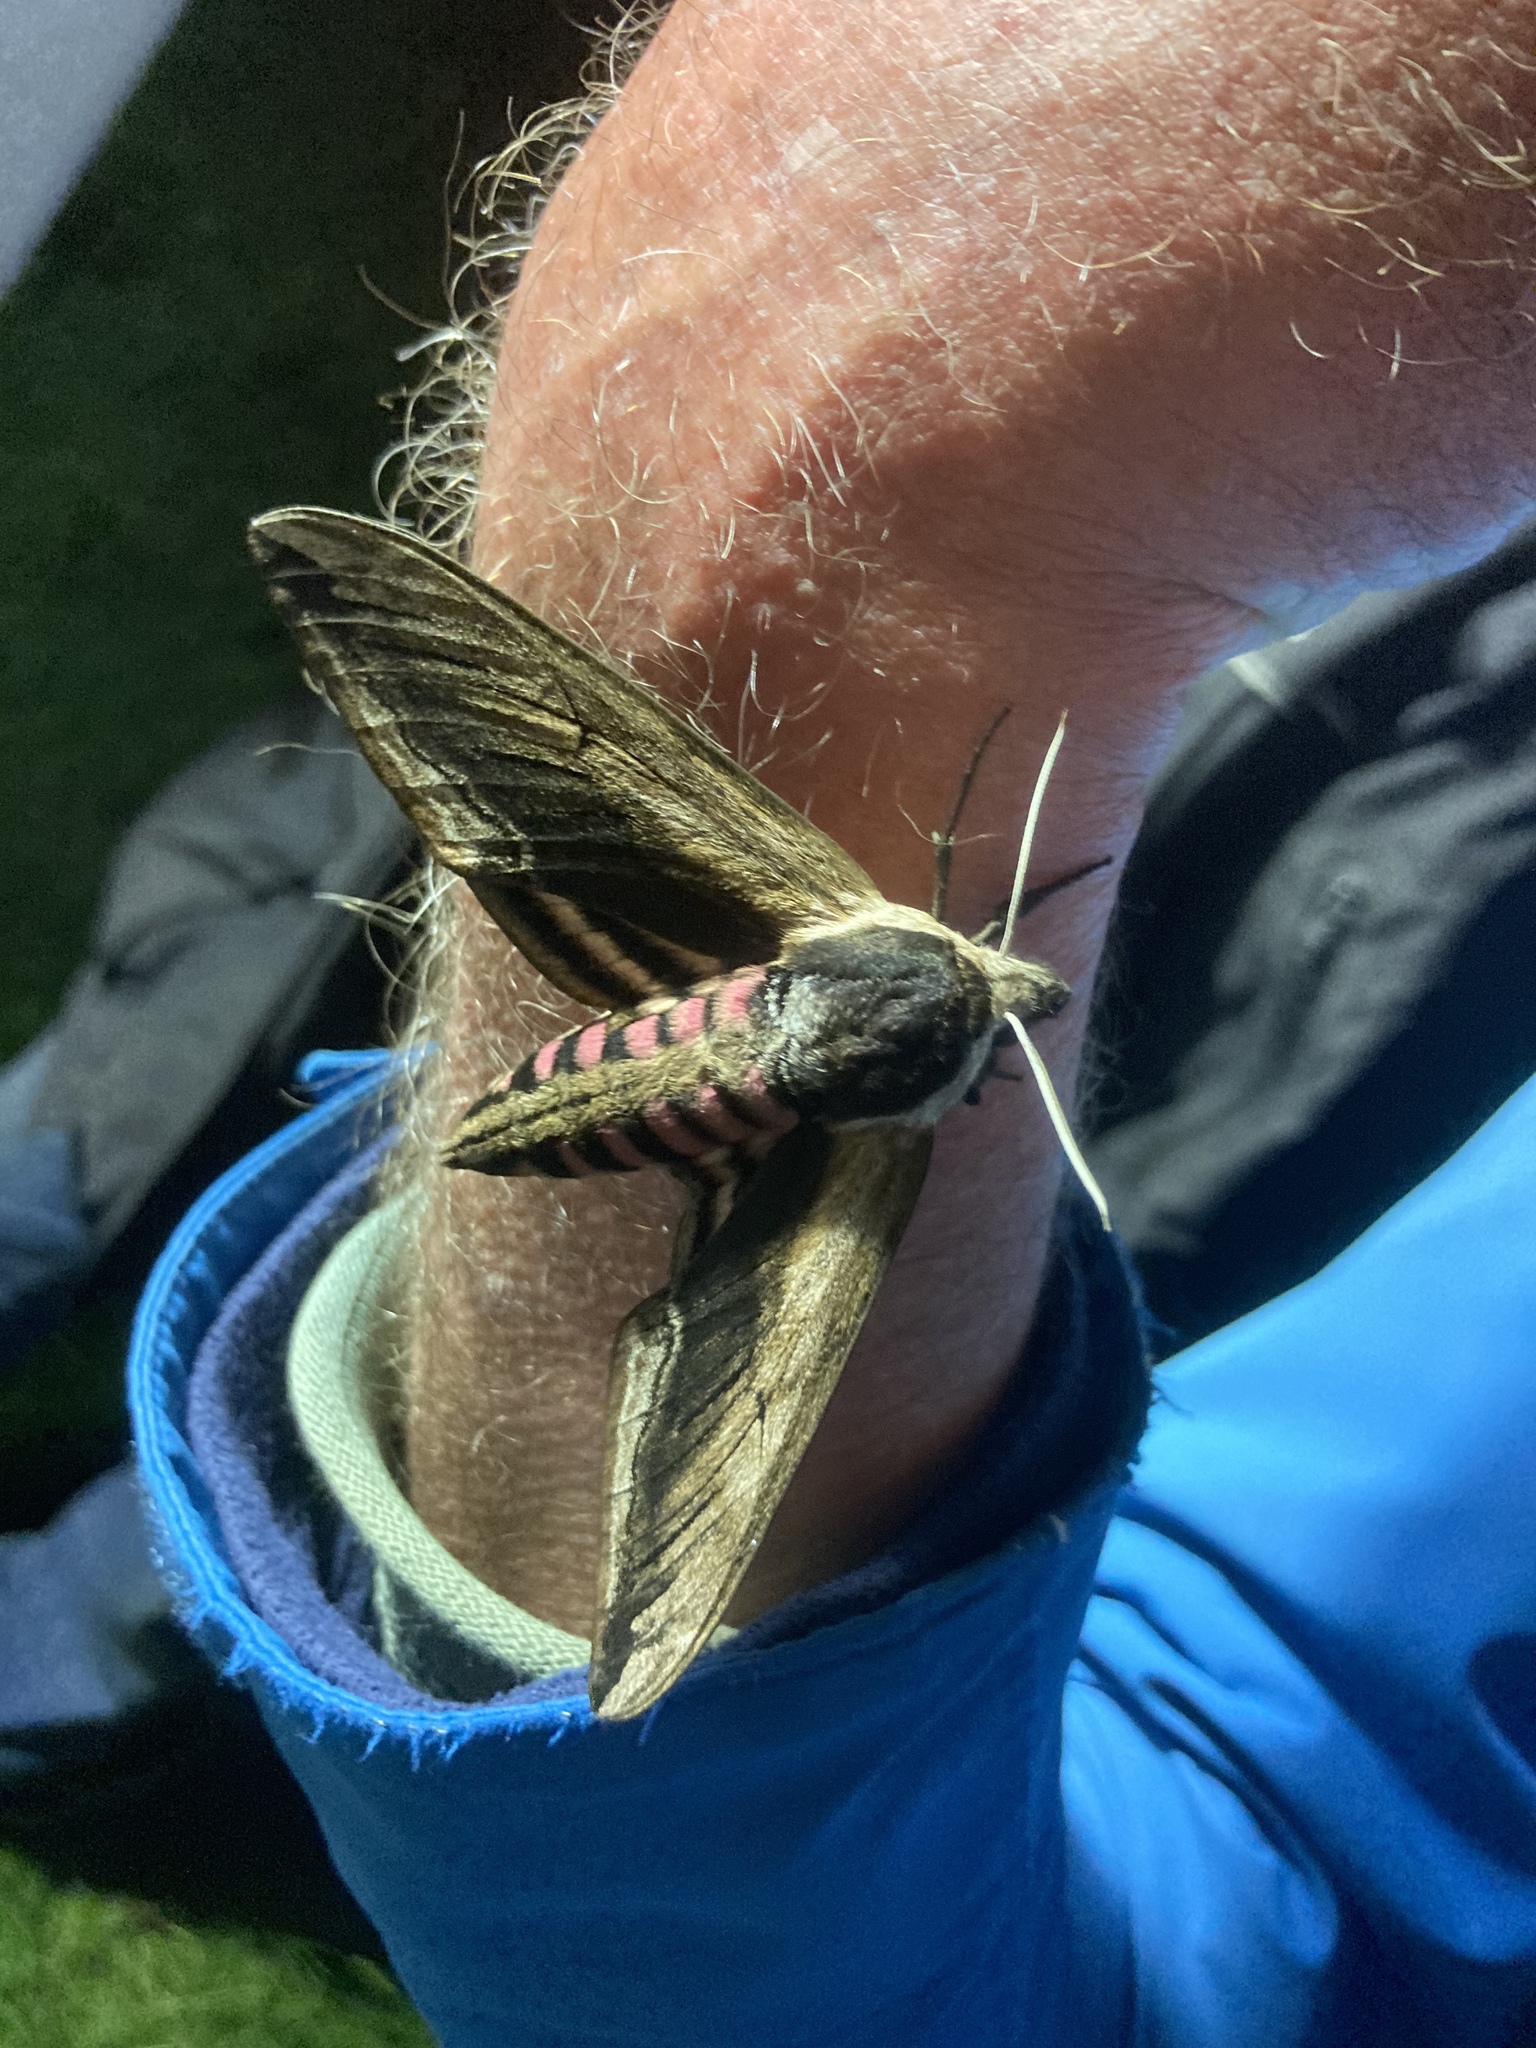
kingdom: Animalia
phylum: Arthropoda
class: Insecta
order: Lepidoptera
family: Sphingidae
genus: Sphinx
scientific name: Sphinx ligustri
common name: Privet hawk-moth
